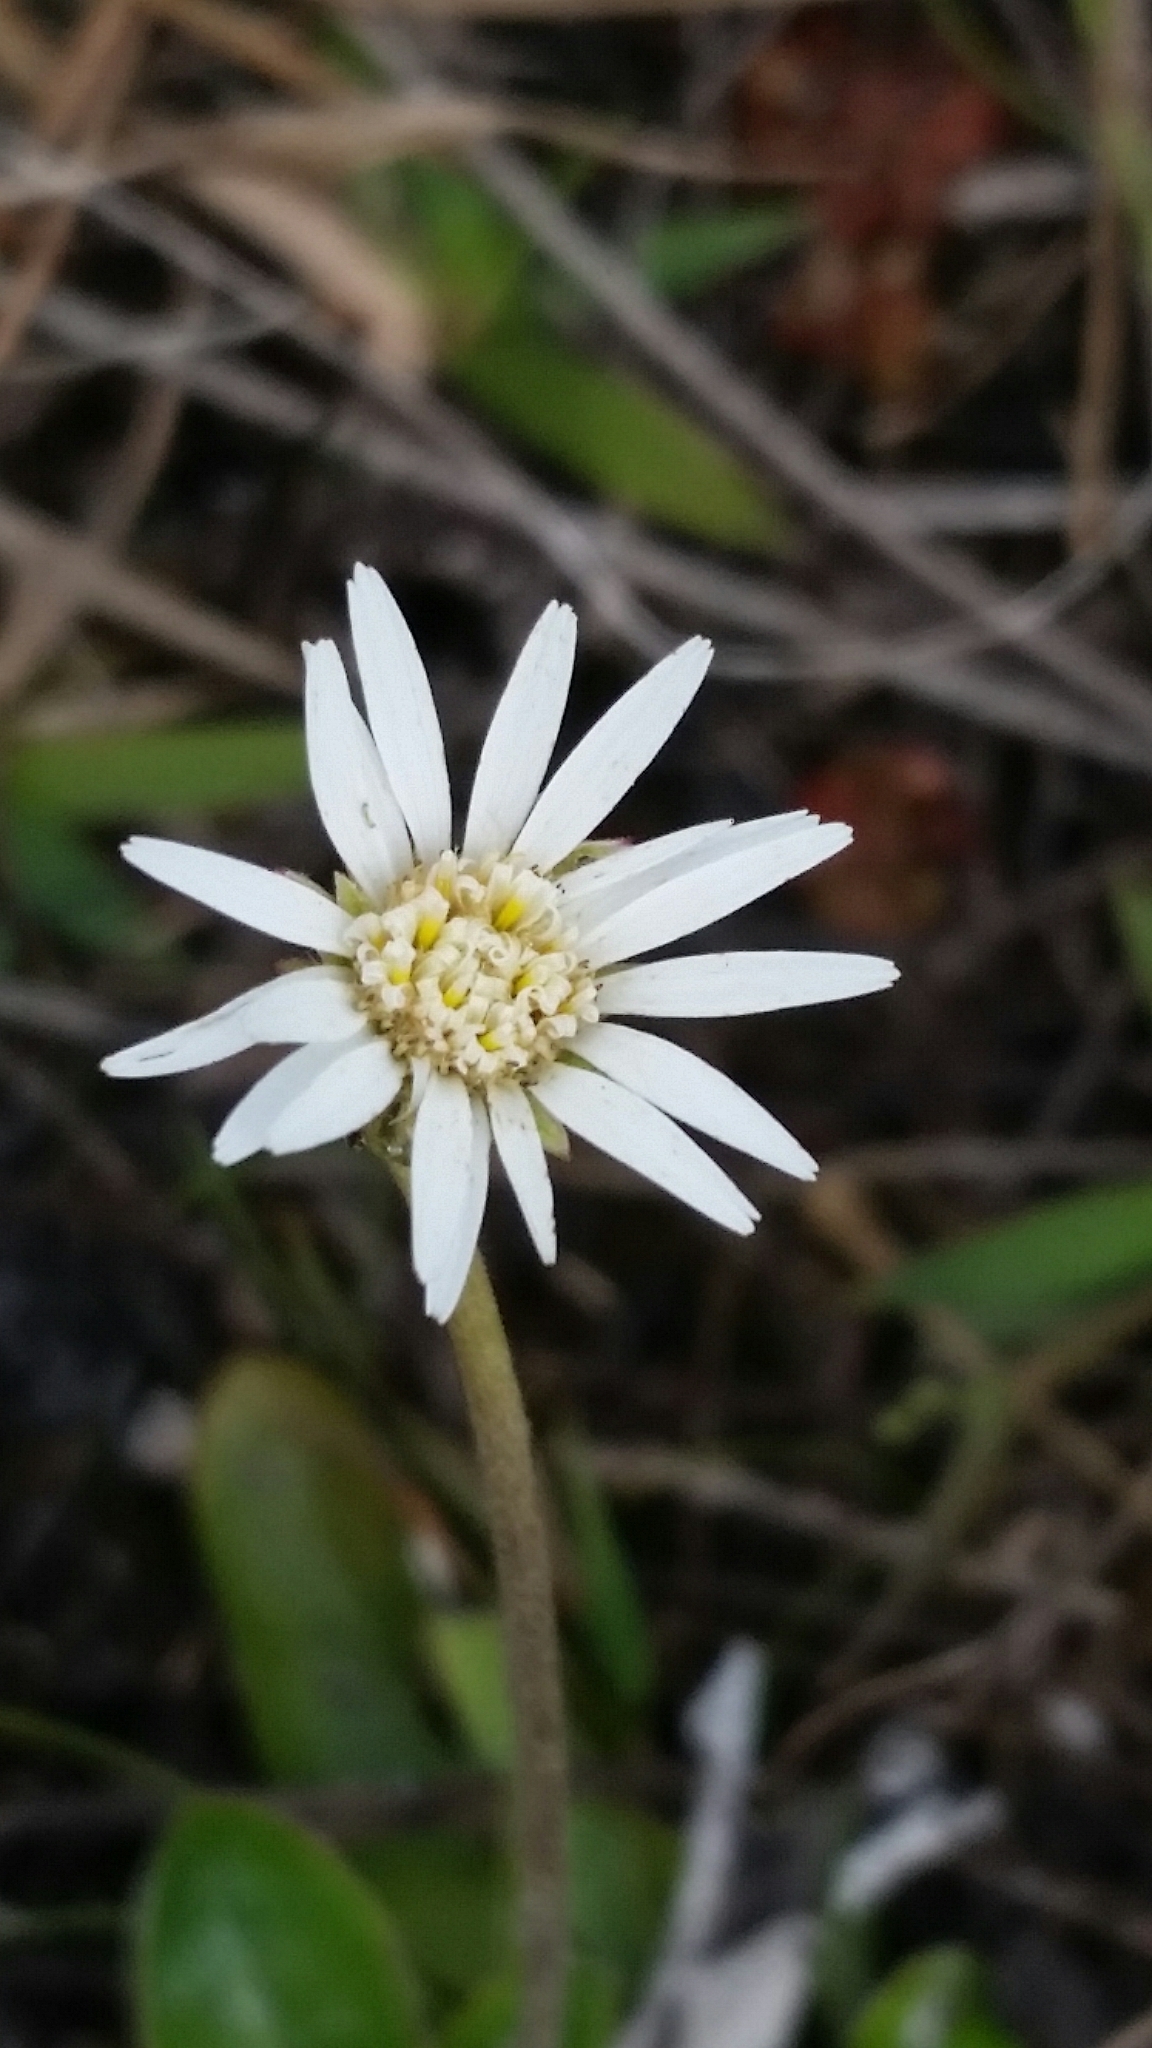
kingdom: Plantae
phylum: Tracheophyta
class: Magnoliopsida
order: Asterales
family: Asteraceae
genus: Chaptalia
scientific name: Chaptalia tomentosa
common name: Woolly sunbonnet
